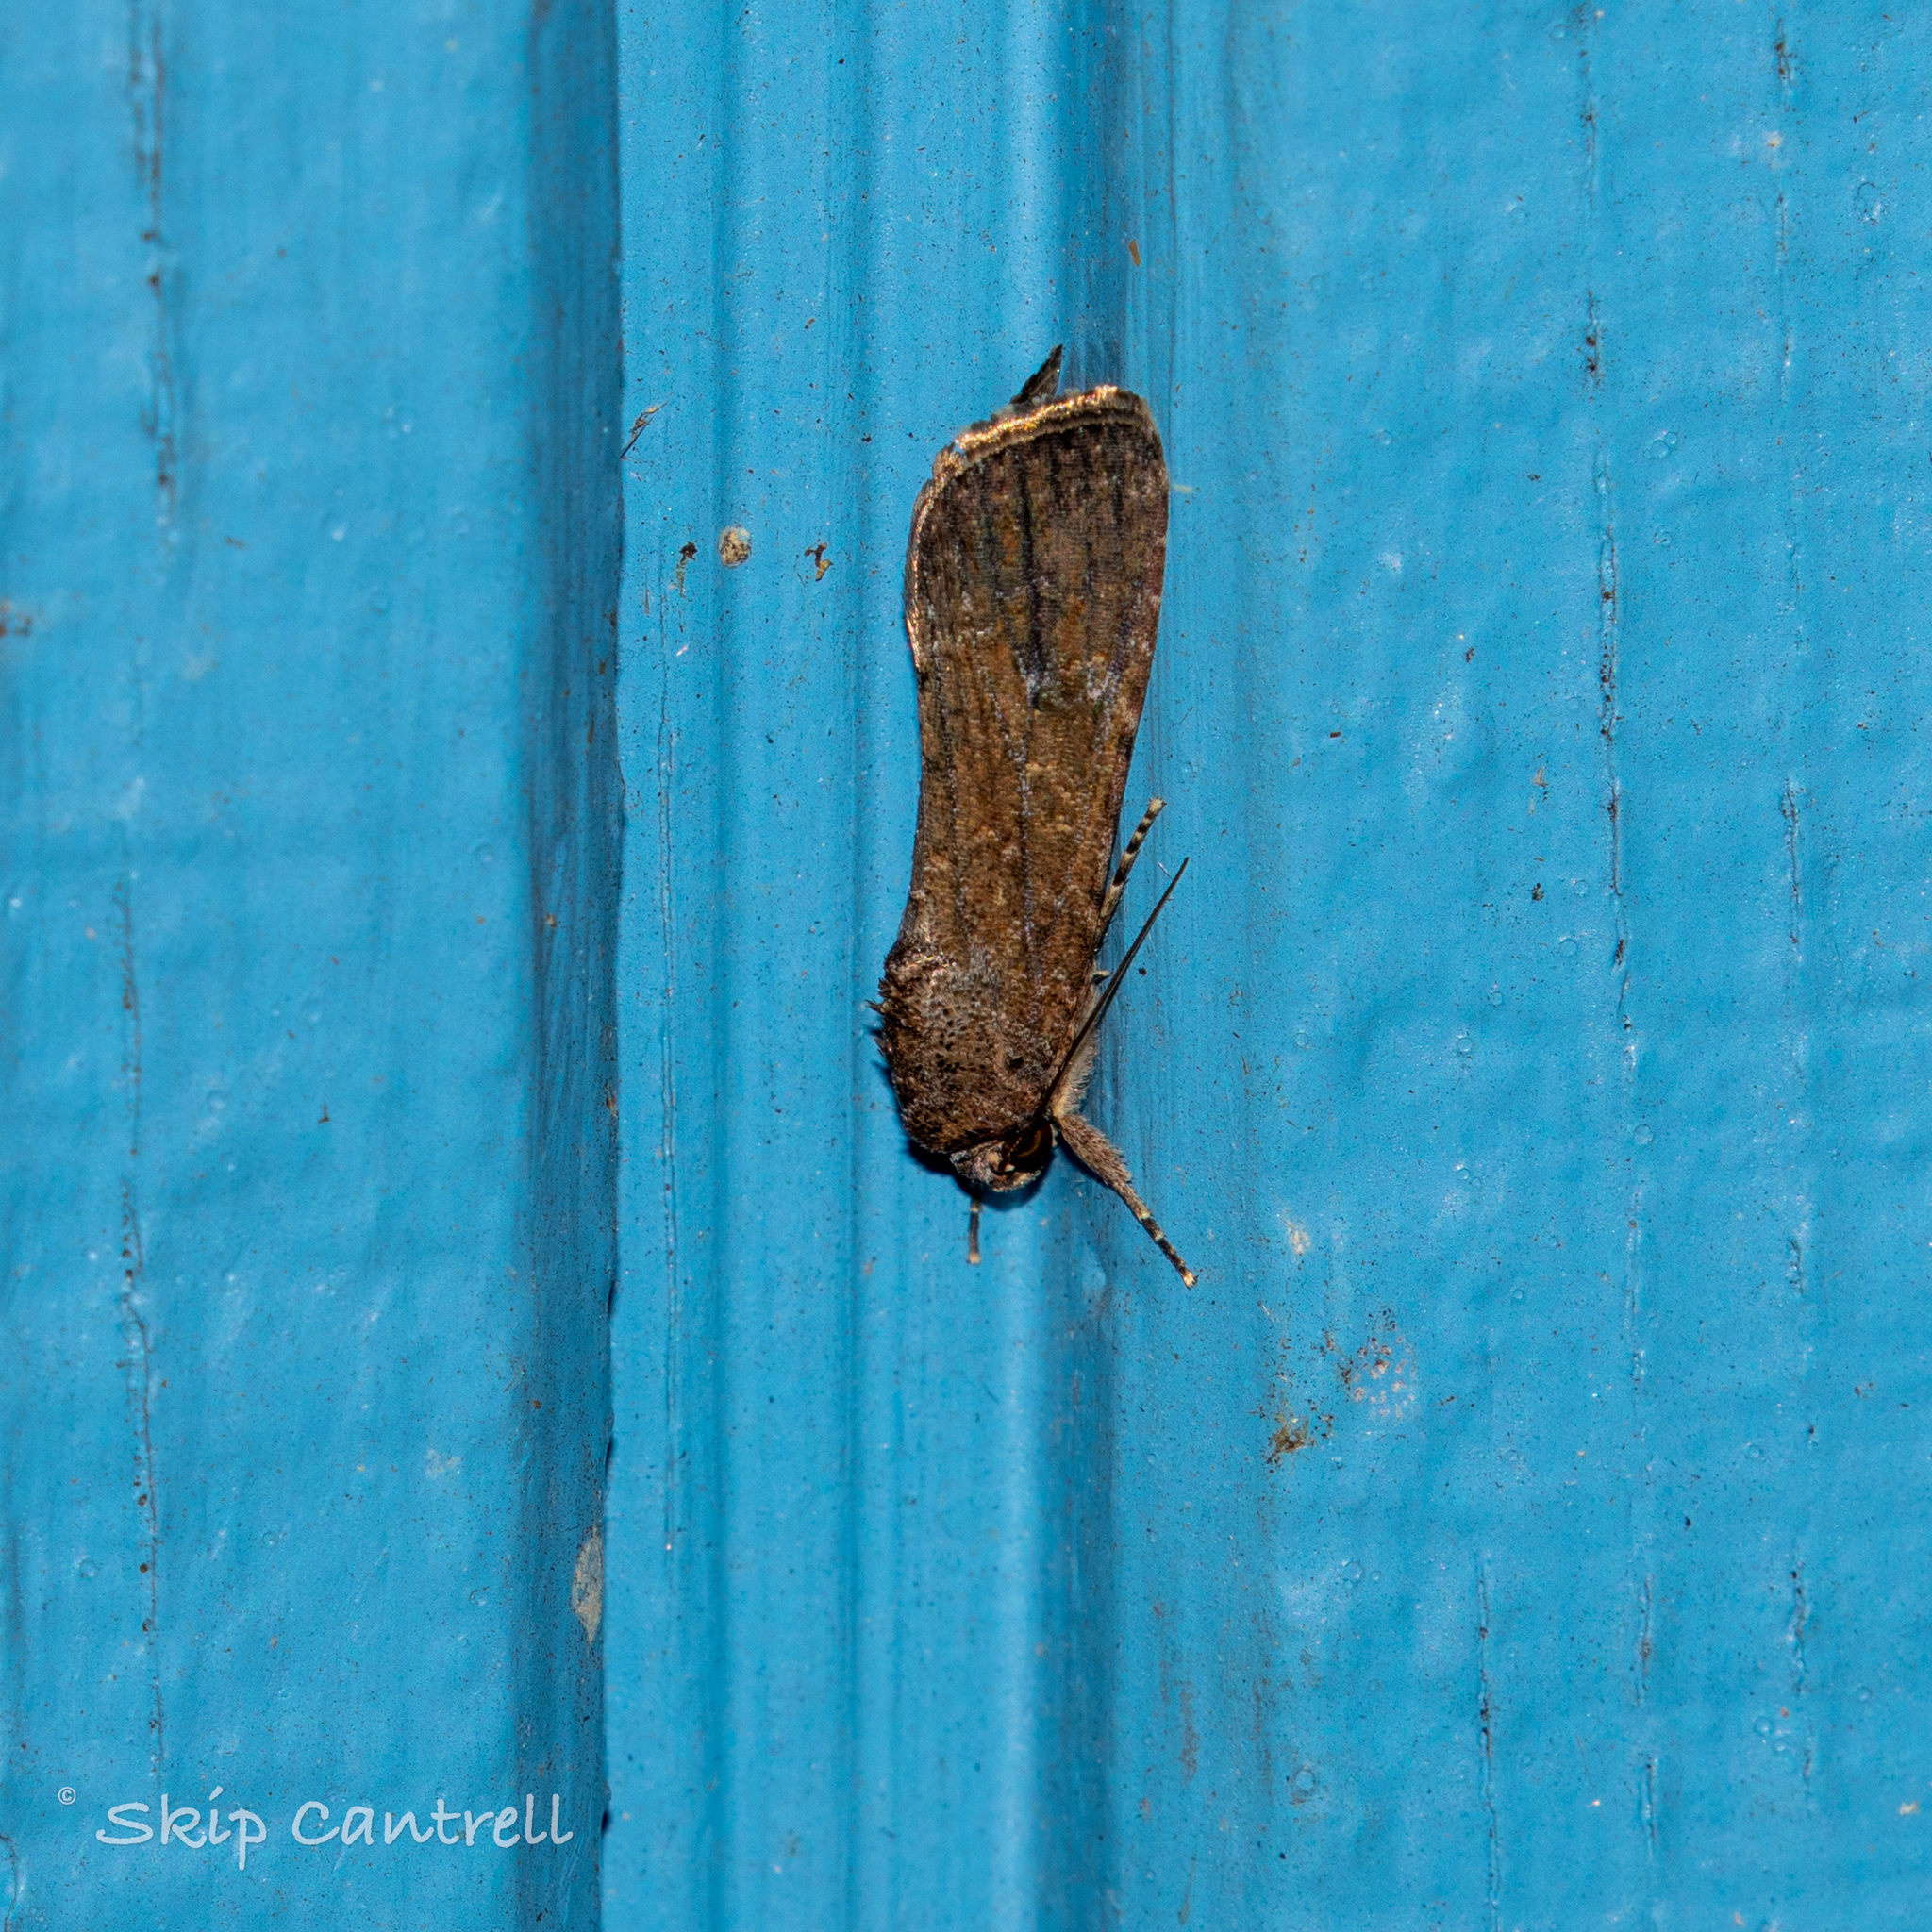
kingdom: Animalia
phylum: Arthropoda
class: Insecta
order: Lepidoptera
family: Noctuidae
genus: Spodoptera
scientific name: Spodoptera frugiperda
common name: Fall armyworm
